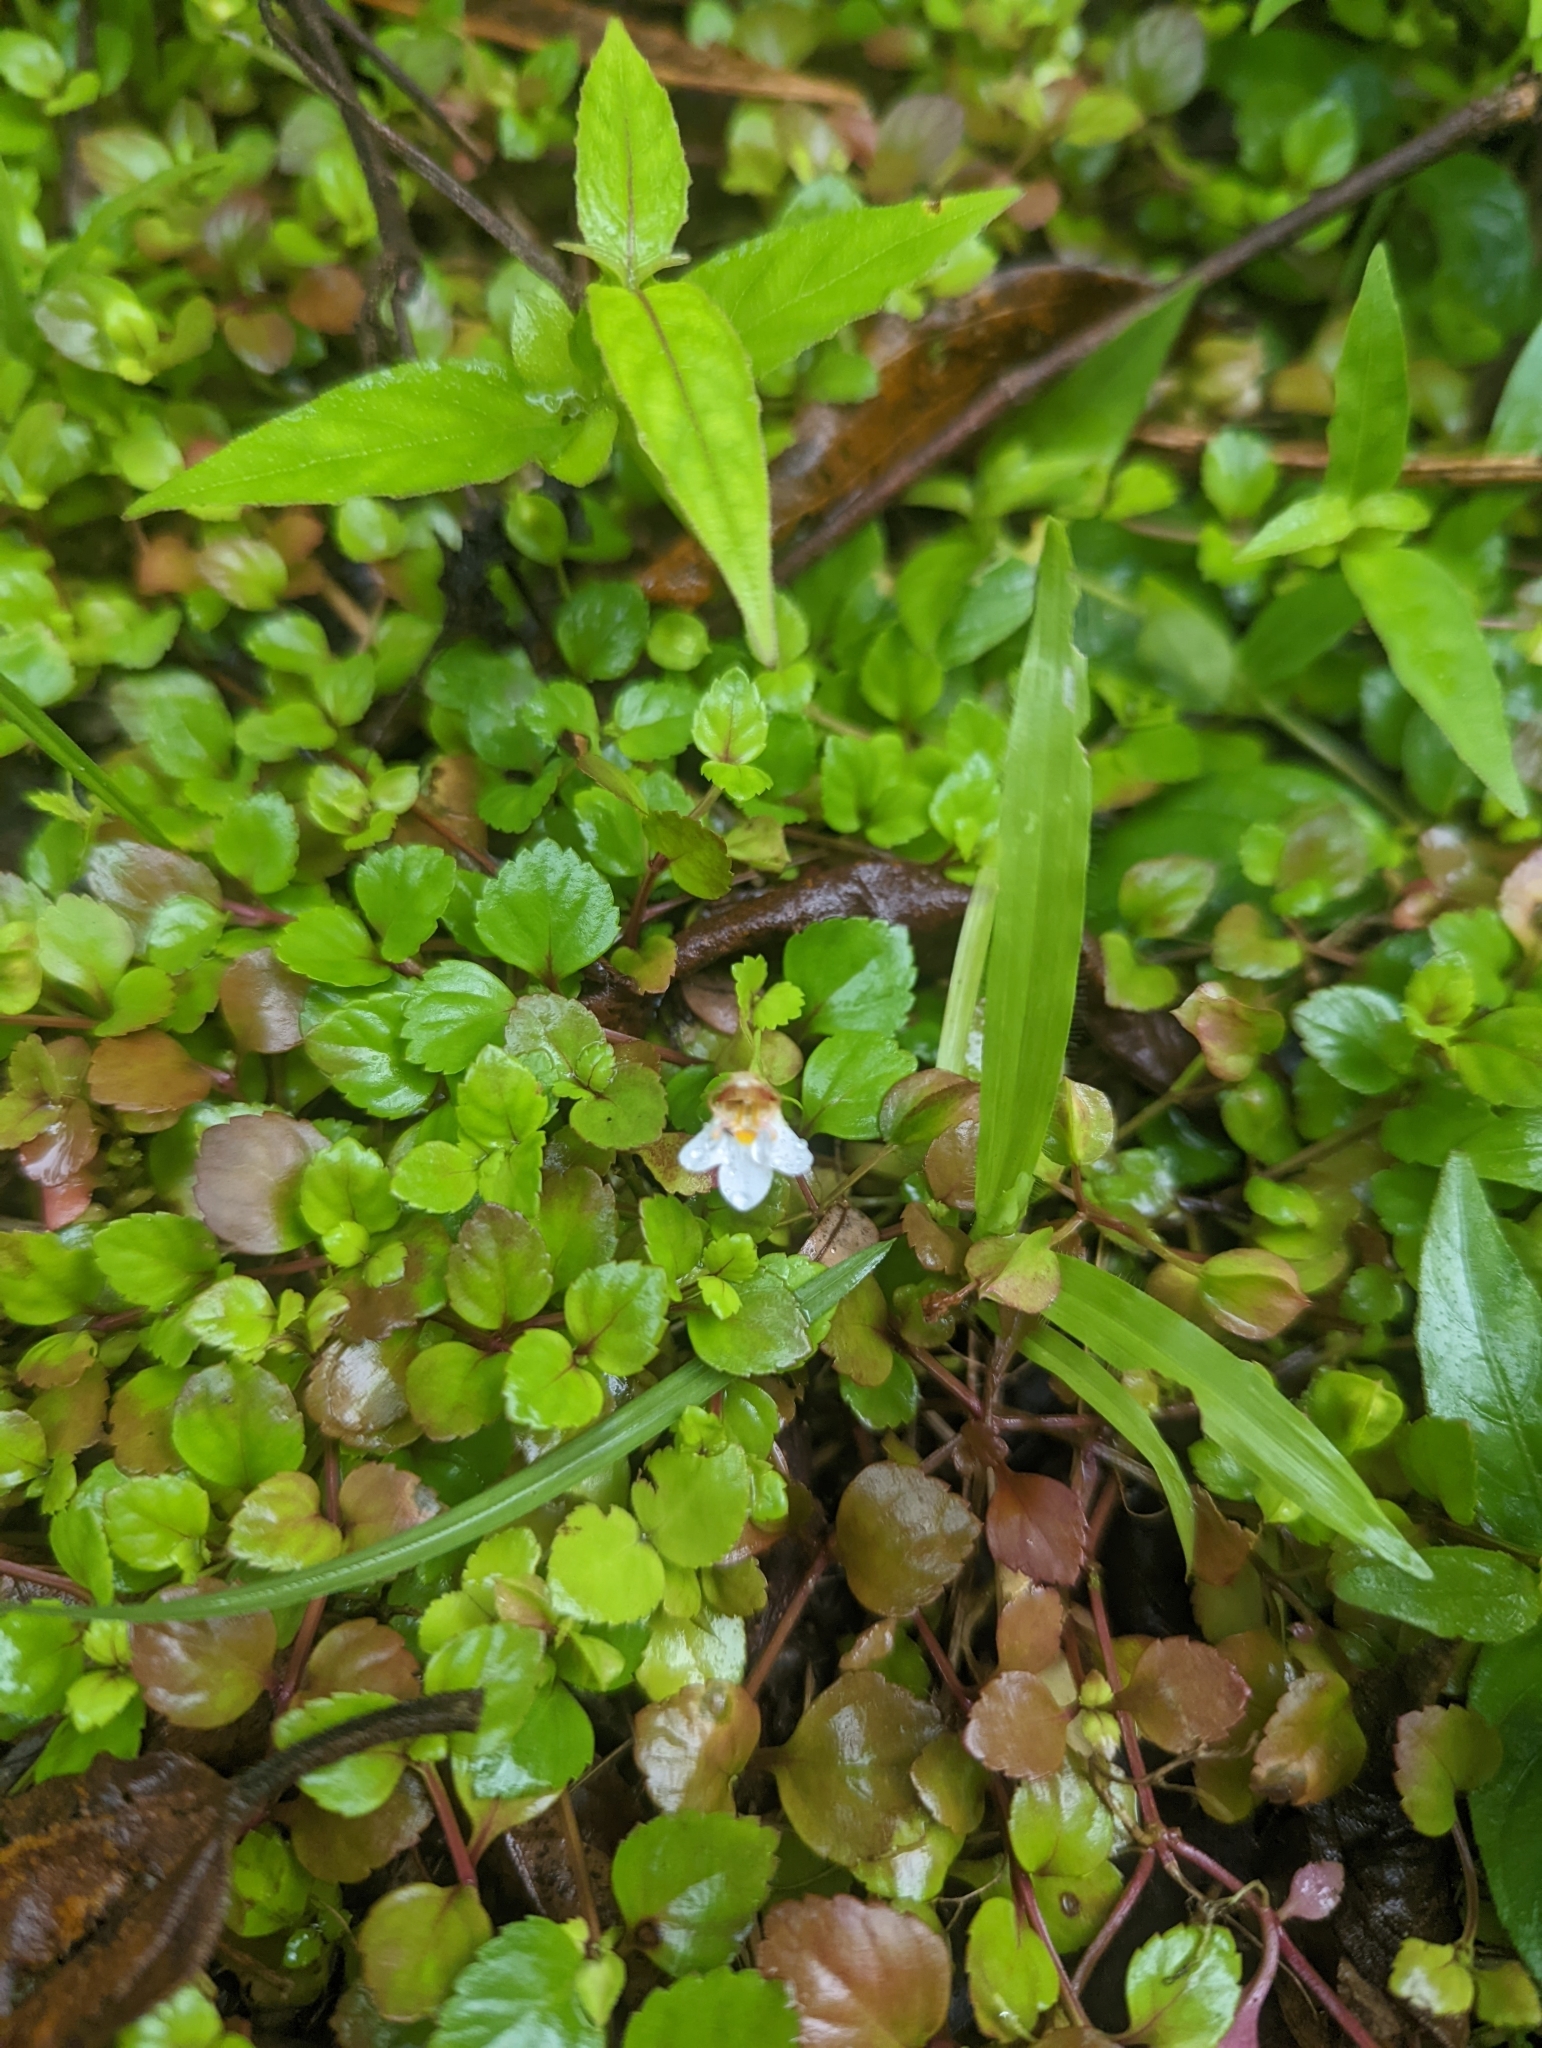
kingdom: Plantae
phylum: Tracheophyta
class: Magnoliopsida
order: Lamiales
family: Linderniaceae
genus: Legazpia
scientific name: Legazpia polygonoides
